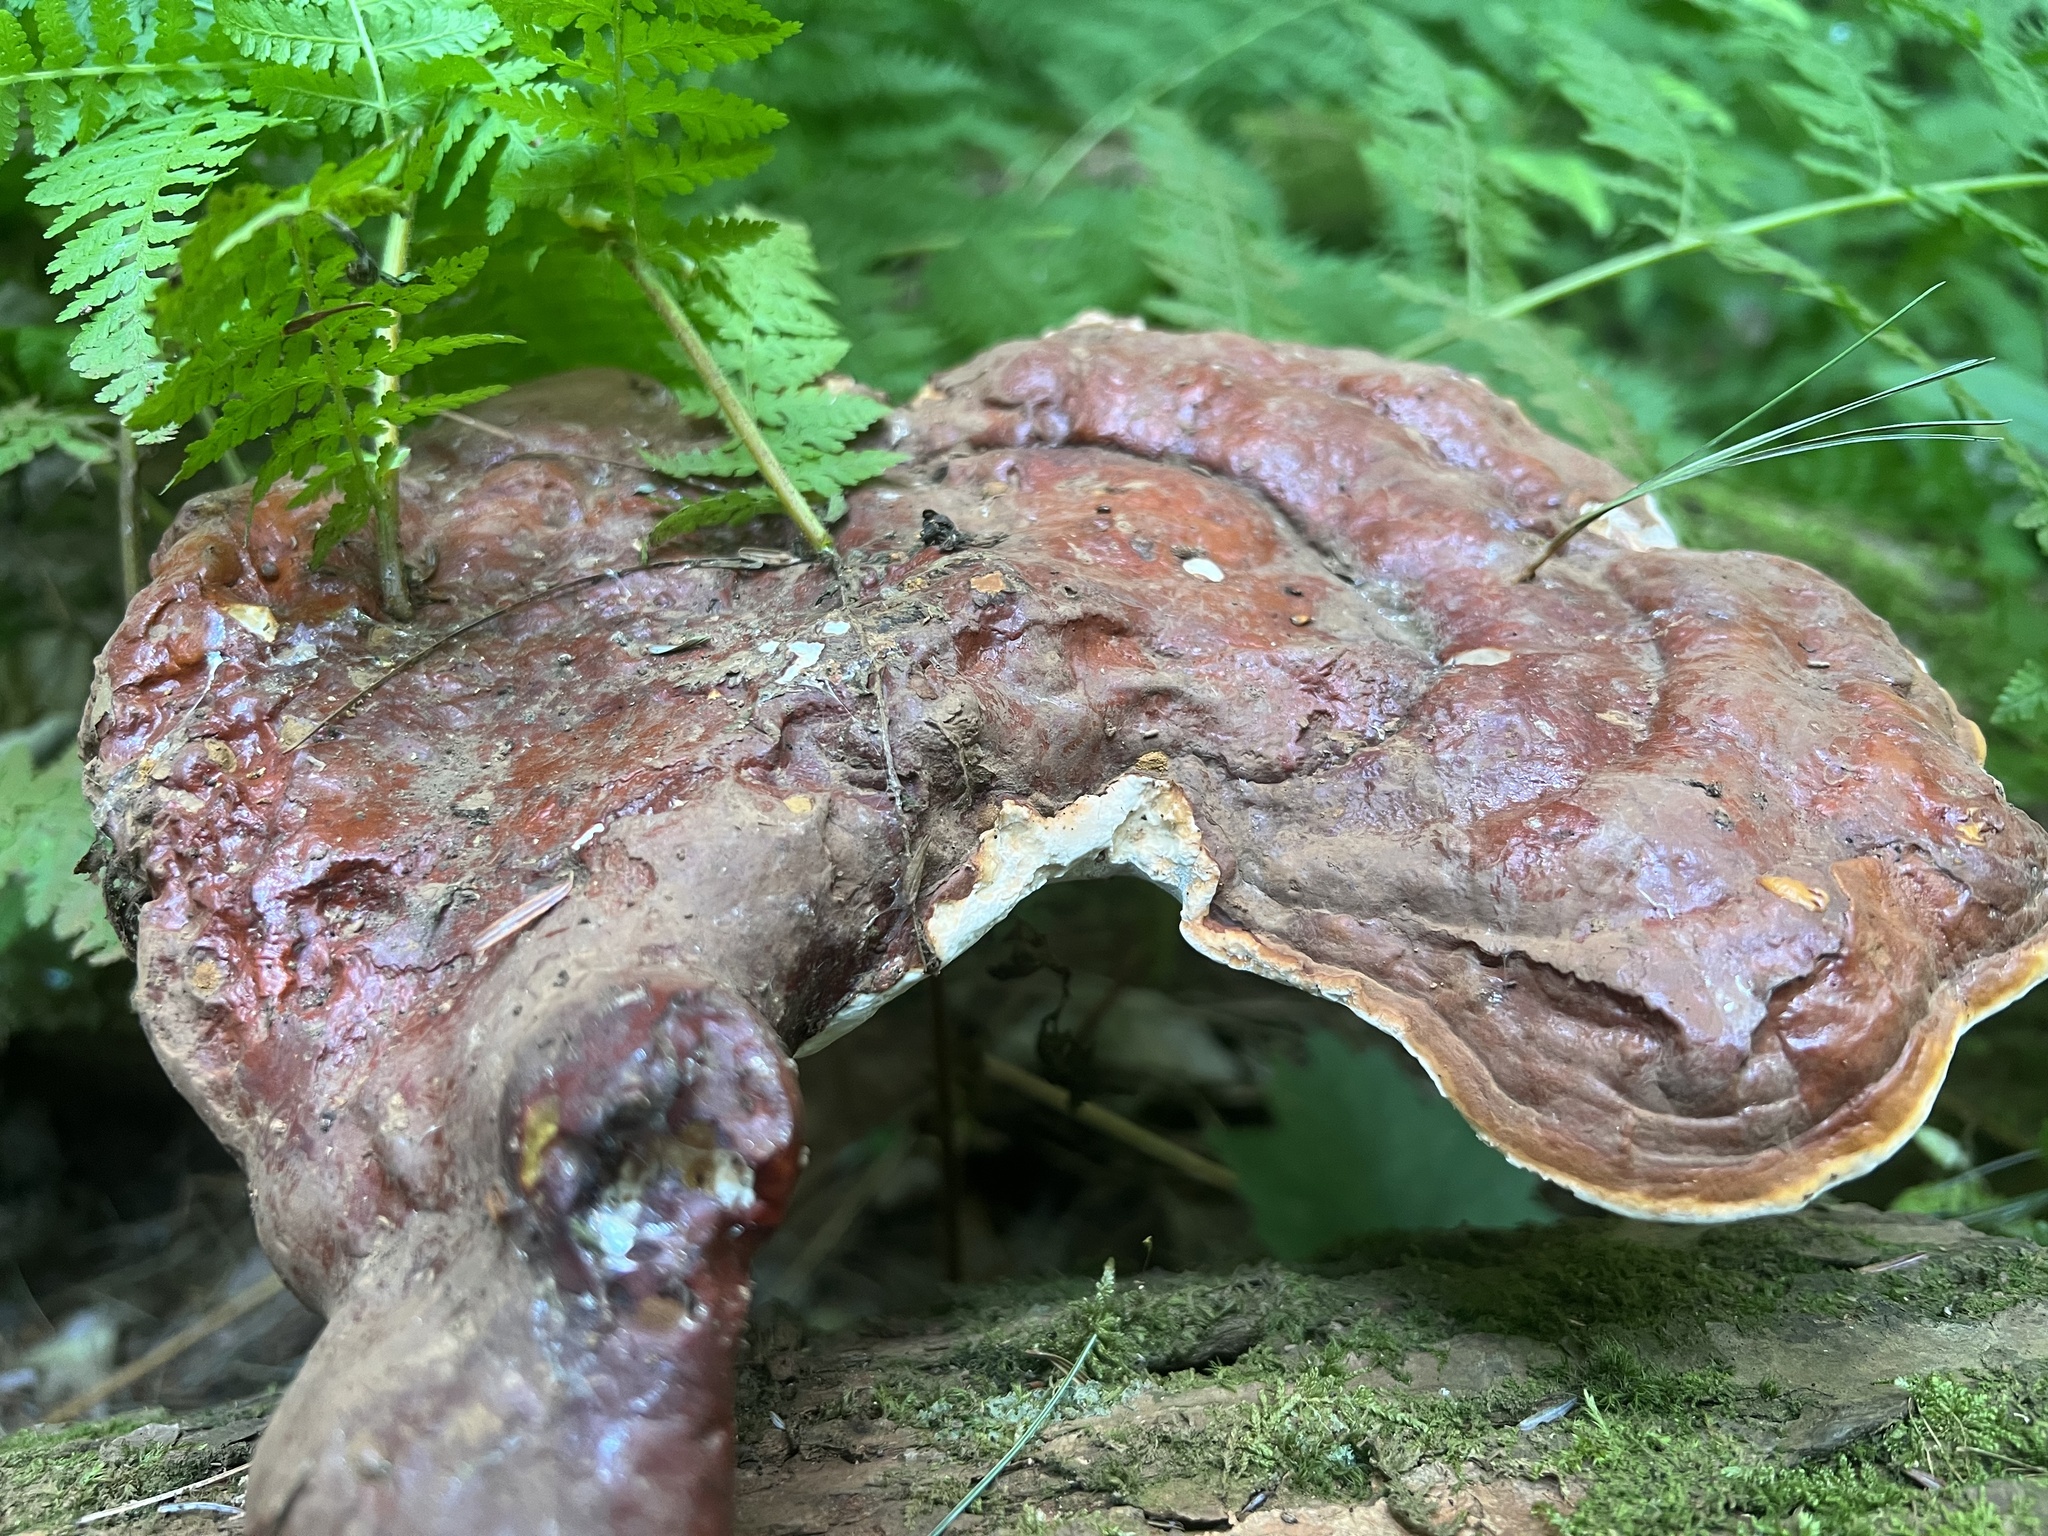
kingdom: Fungi
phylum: Basidiomycota
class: Agaricomycetes
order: Polyporales
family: Polyporaceae
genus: Ganoderma
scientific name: Ganoderma tsugae
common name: Hemlock varnish shelf
